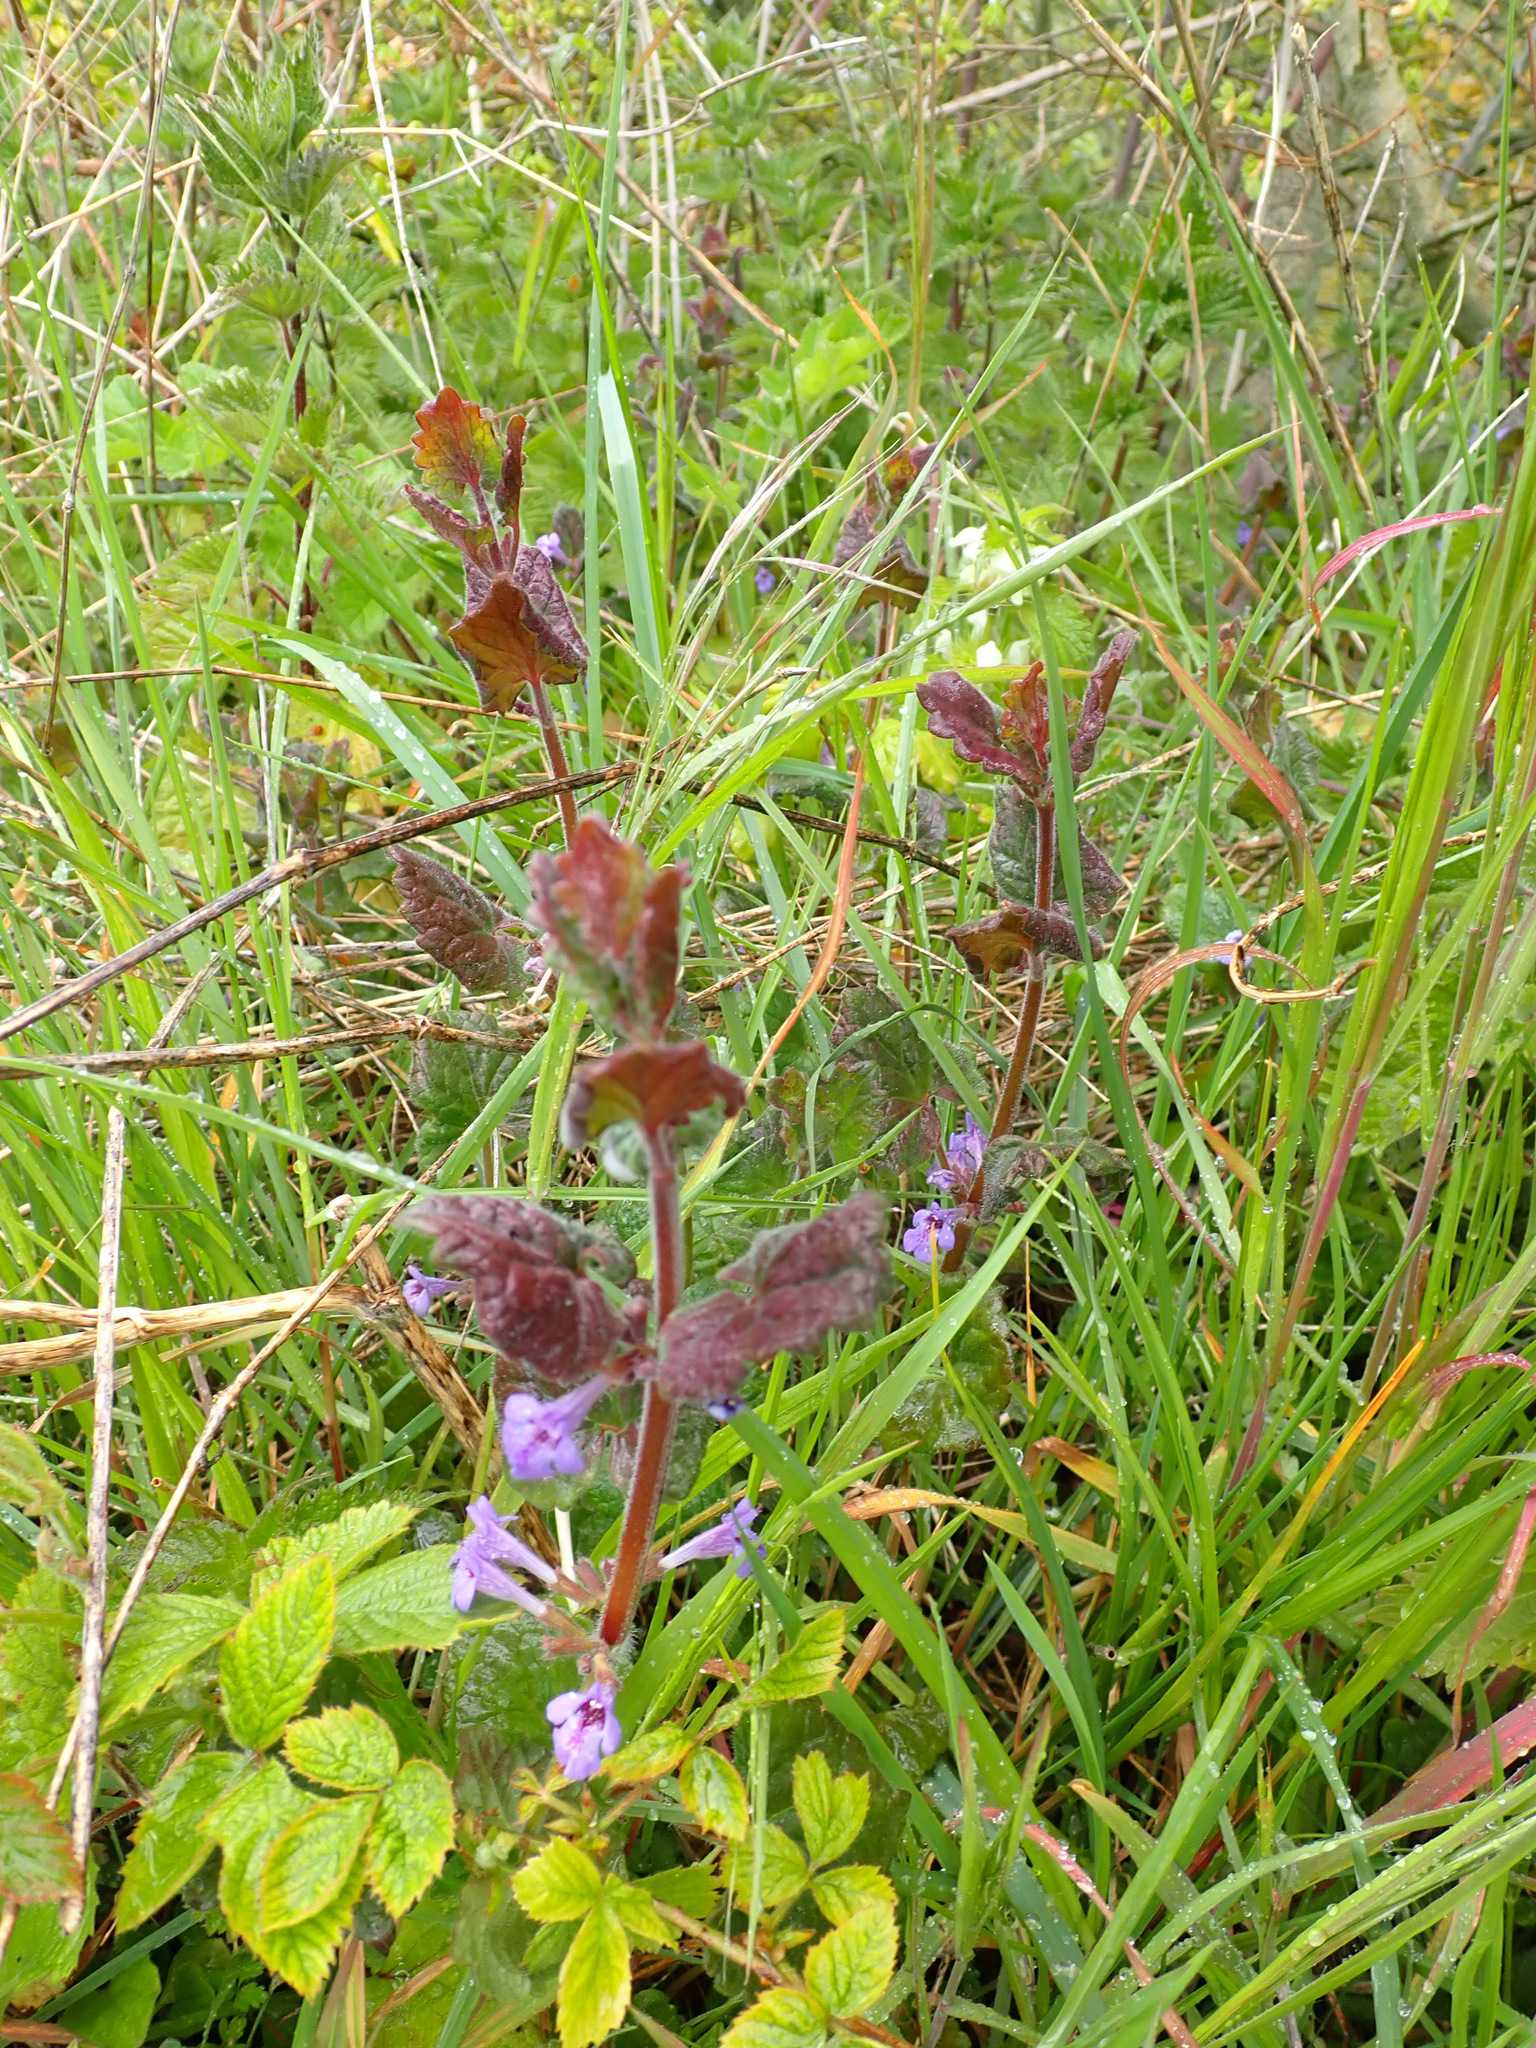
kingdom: Plantae
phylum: Tracheophyta
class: Magnoliopsida
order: Lamiales
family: Lamiaceae
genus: Glechoma
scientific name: Glechoma hederacea
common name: Ground ivy
